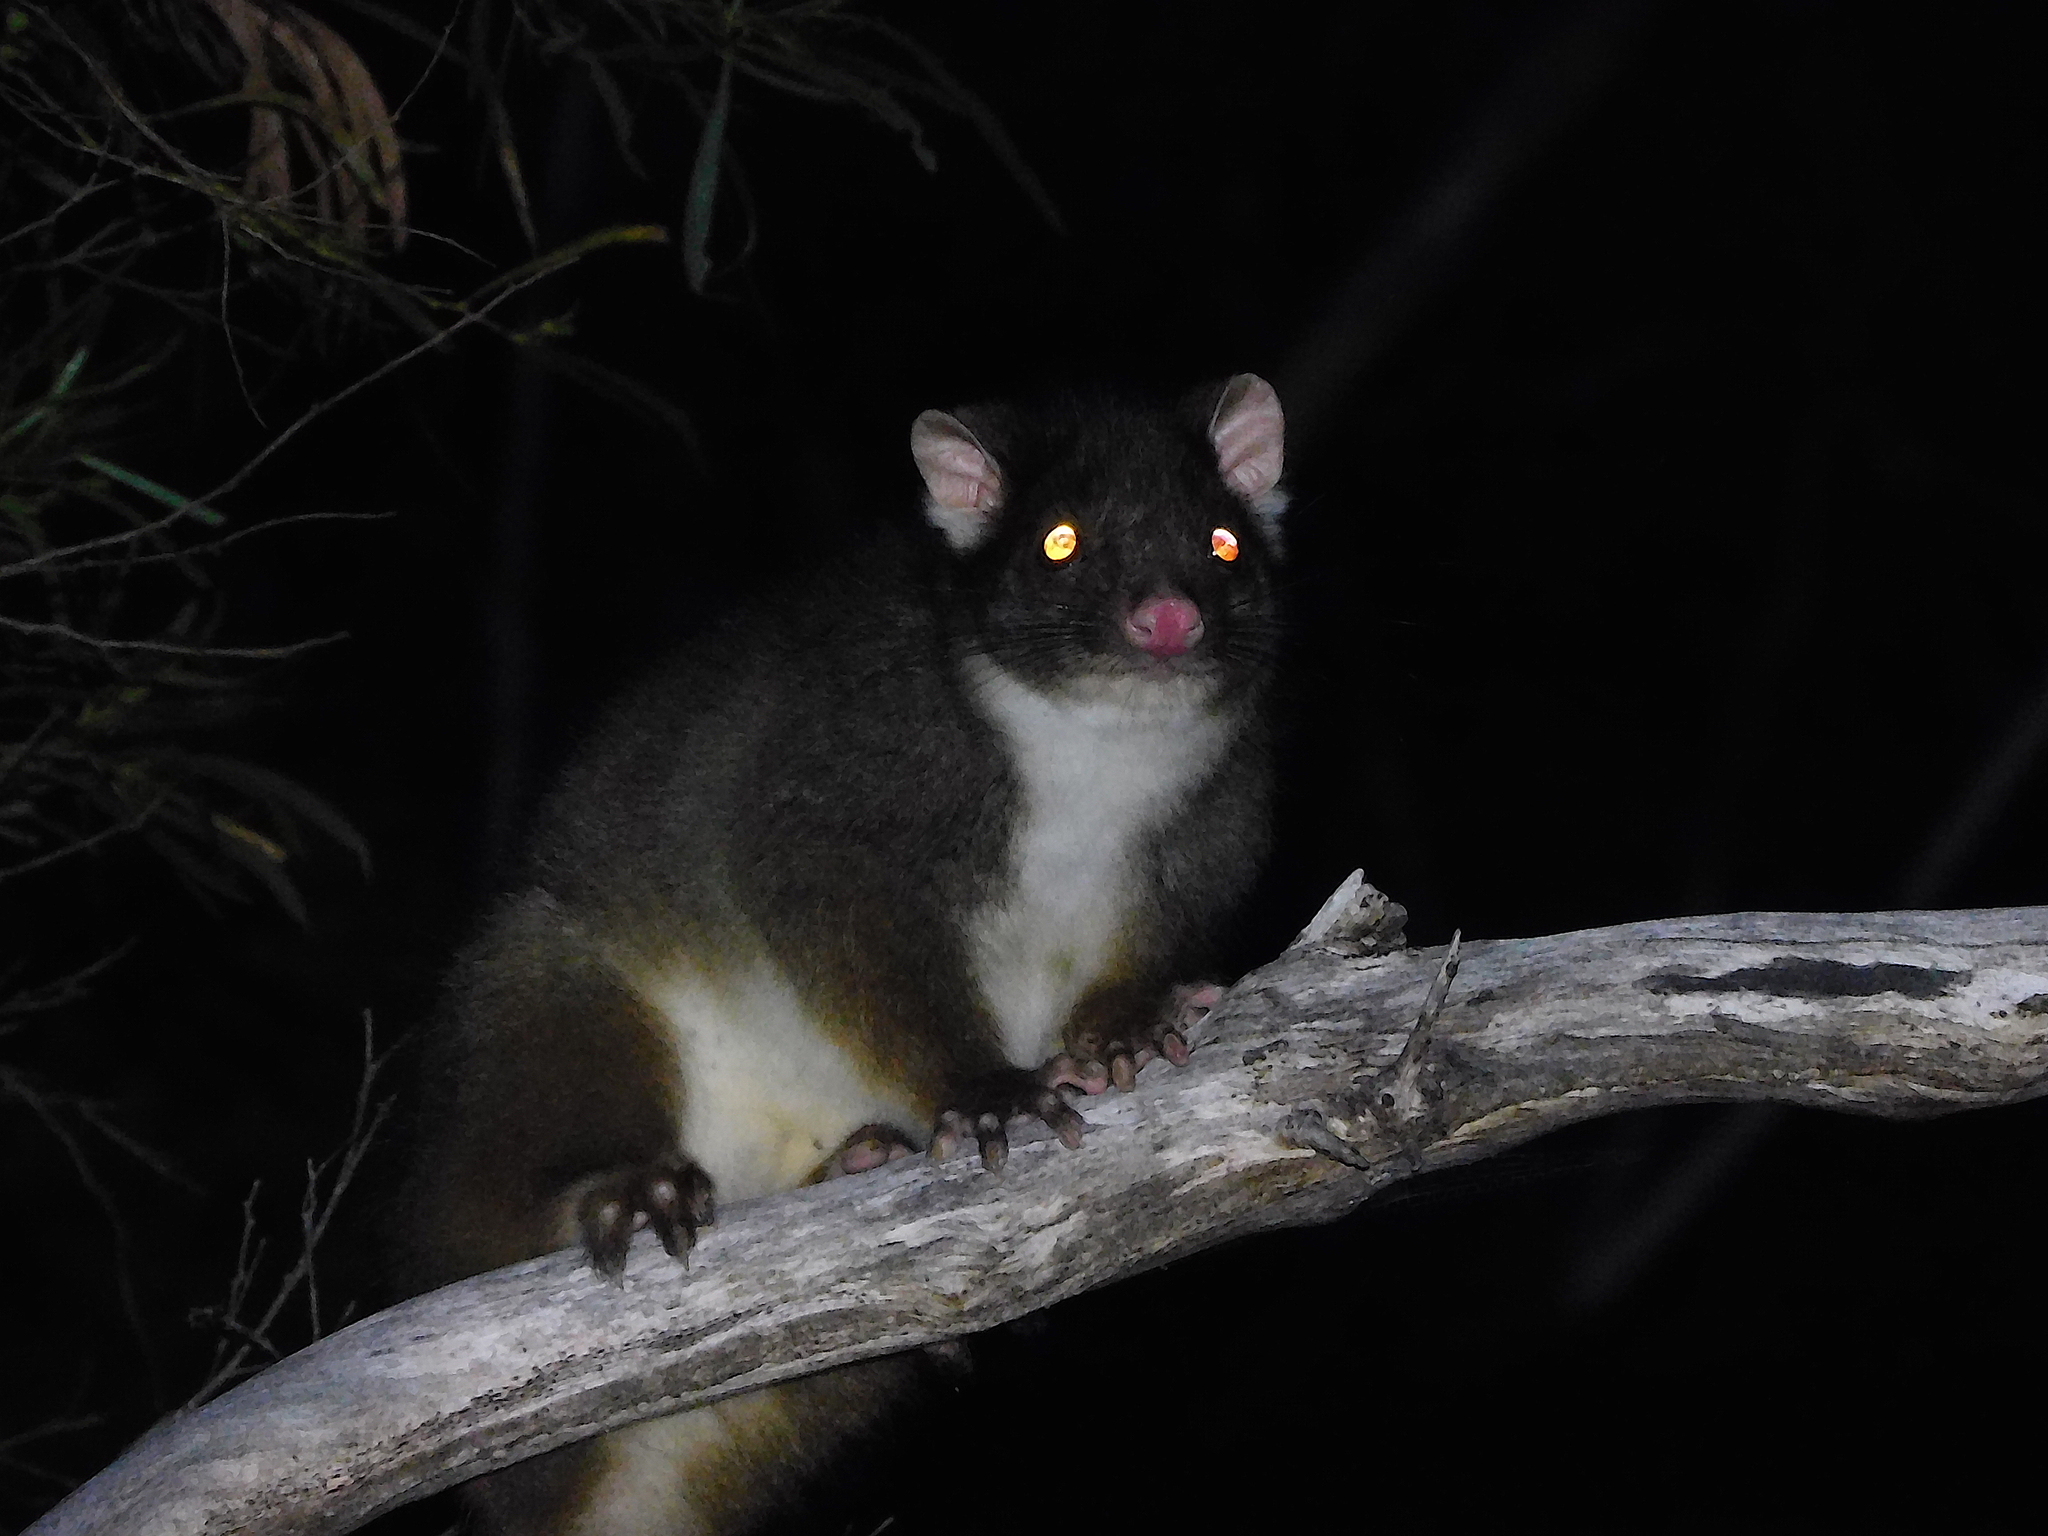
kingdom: Animalia
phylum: Chordata
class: Mammalia
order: Diprotodontia
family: Pseudocheiridae
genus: Pseudocheirus
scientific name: Pseudocheirus peregrinus
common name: Common ringtail possum
